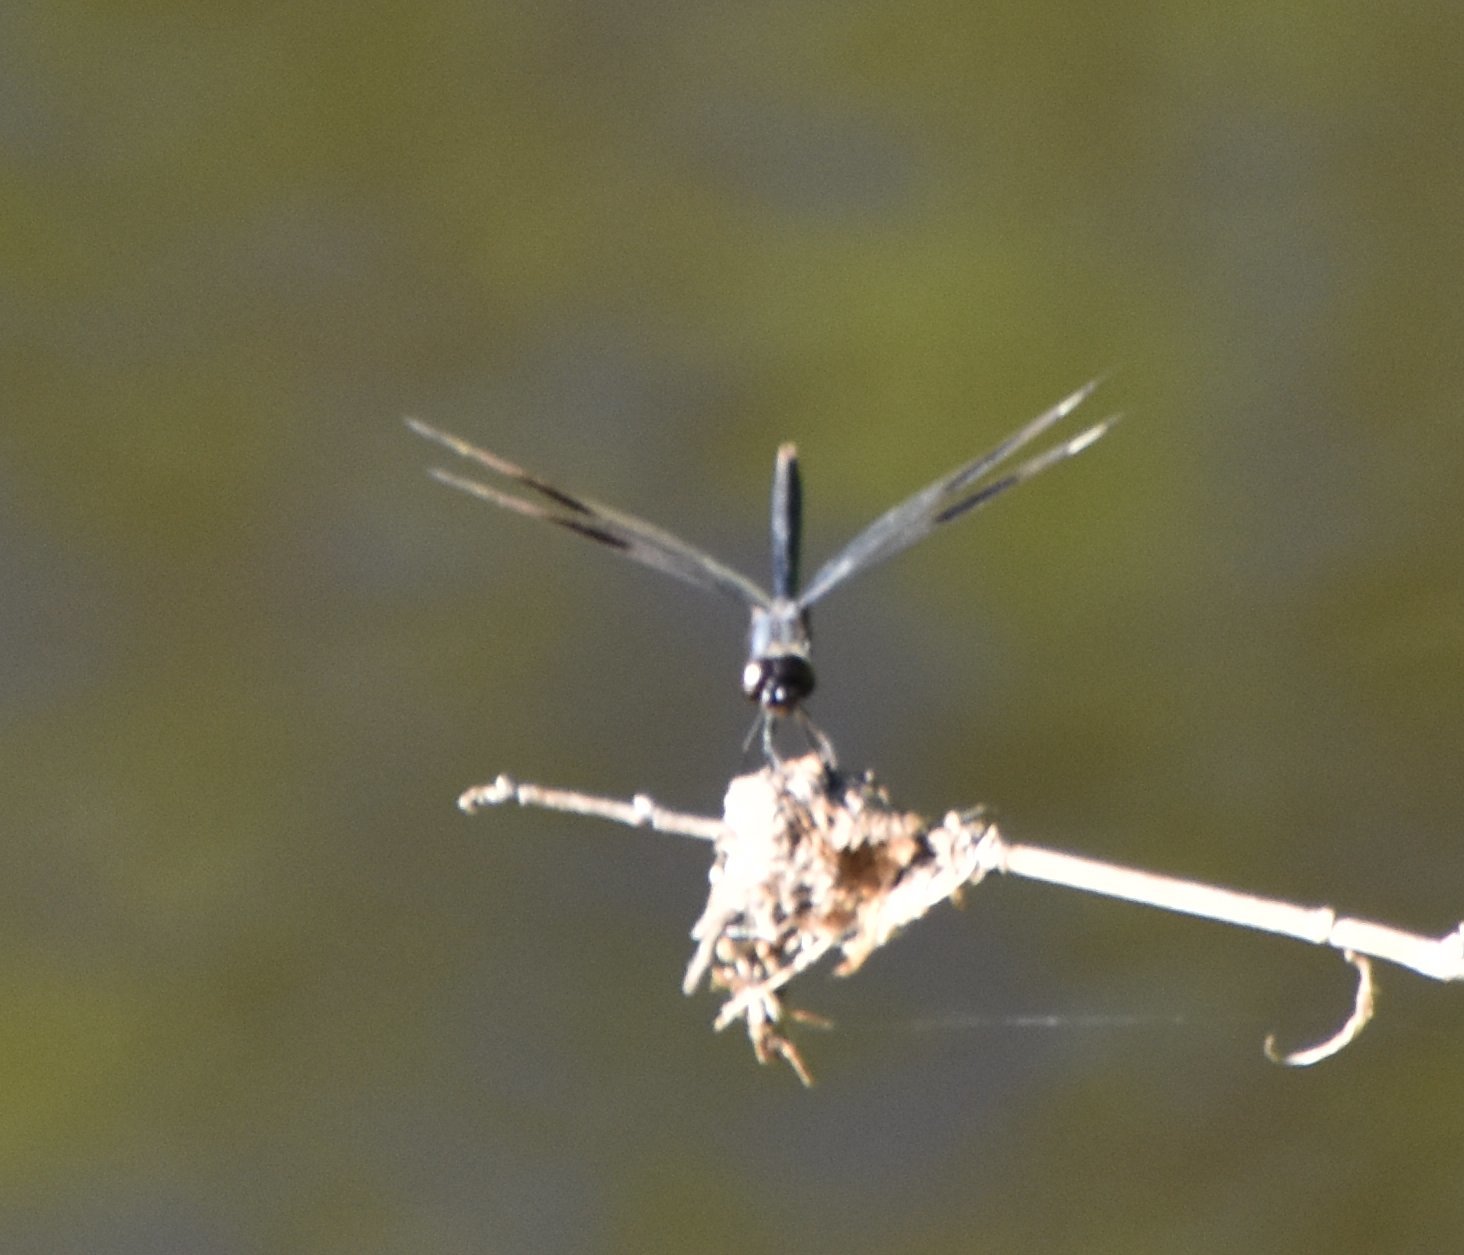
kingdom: Animalia
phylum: Arthropoda
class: Insecta
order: Odonata
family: Libellulidae
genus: Brachymesia
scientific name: Brachymesia gravida
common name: Four-spotted pennant
